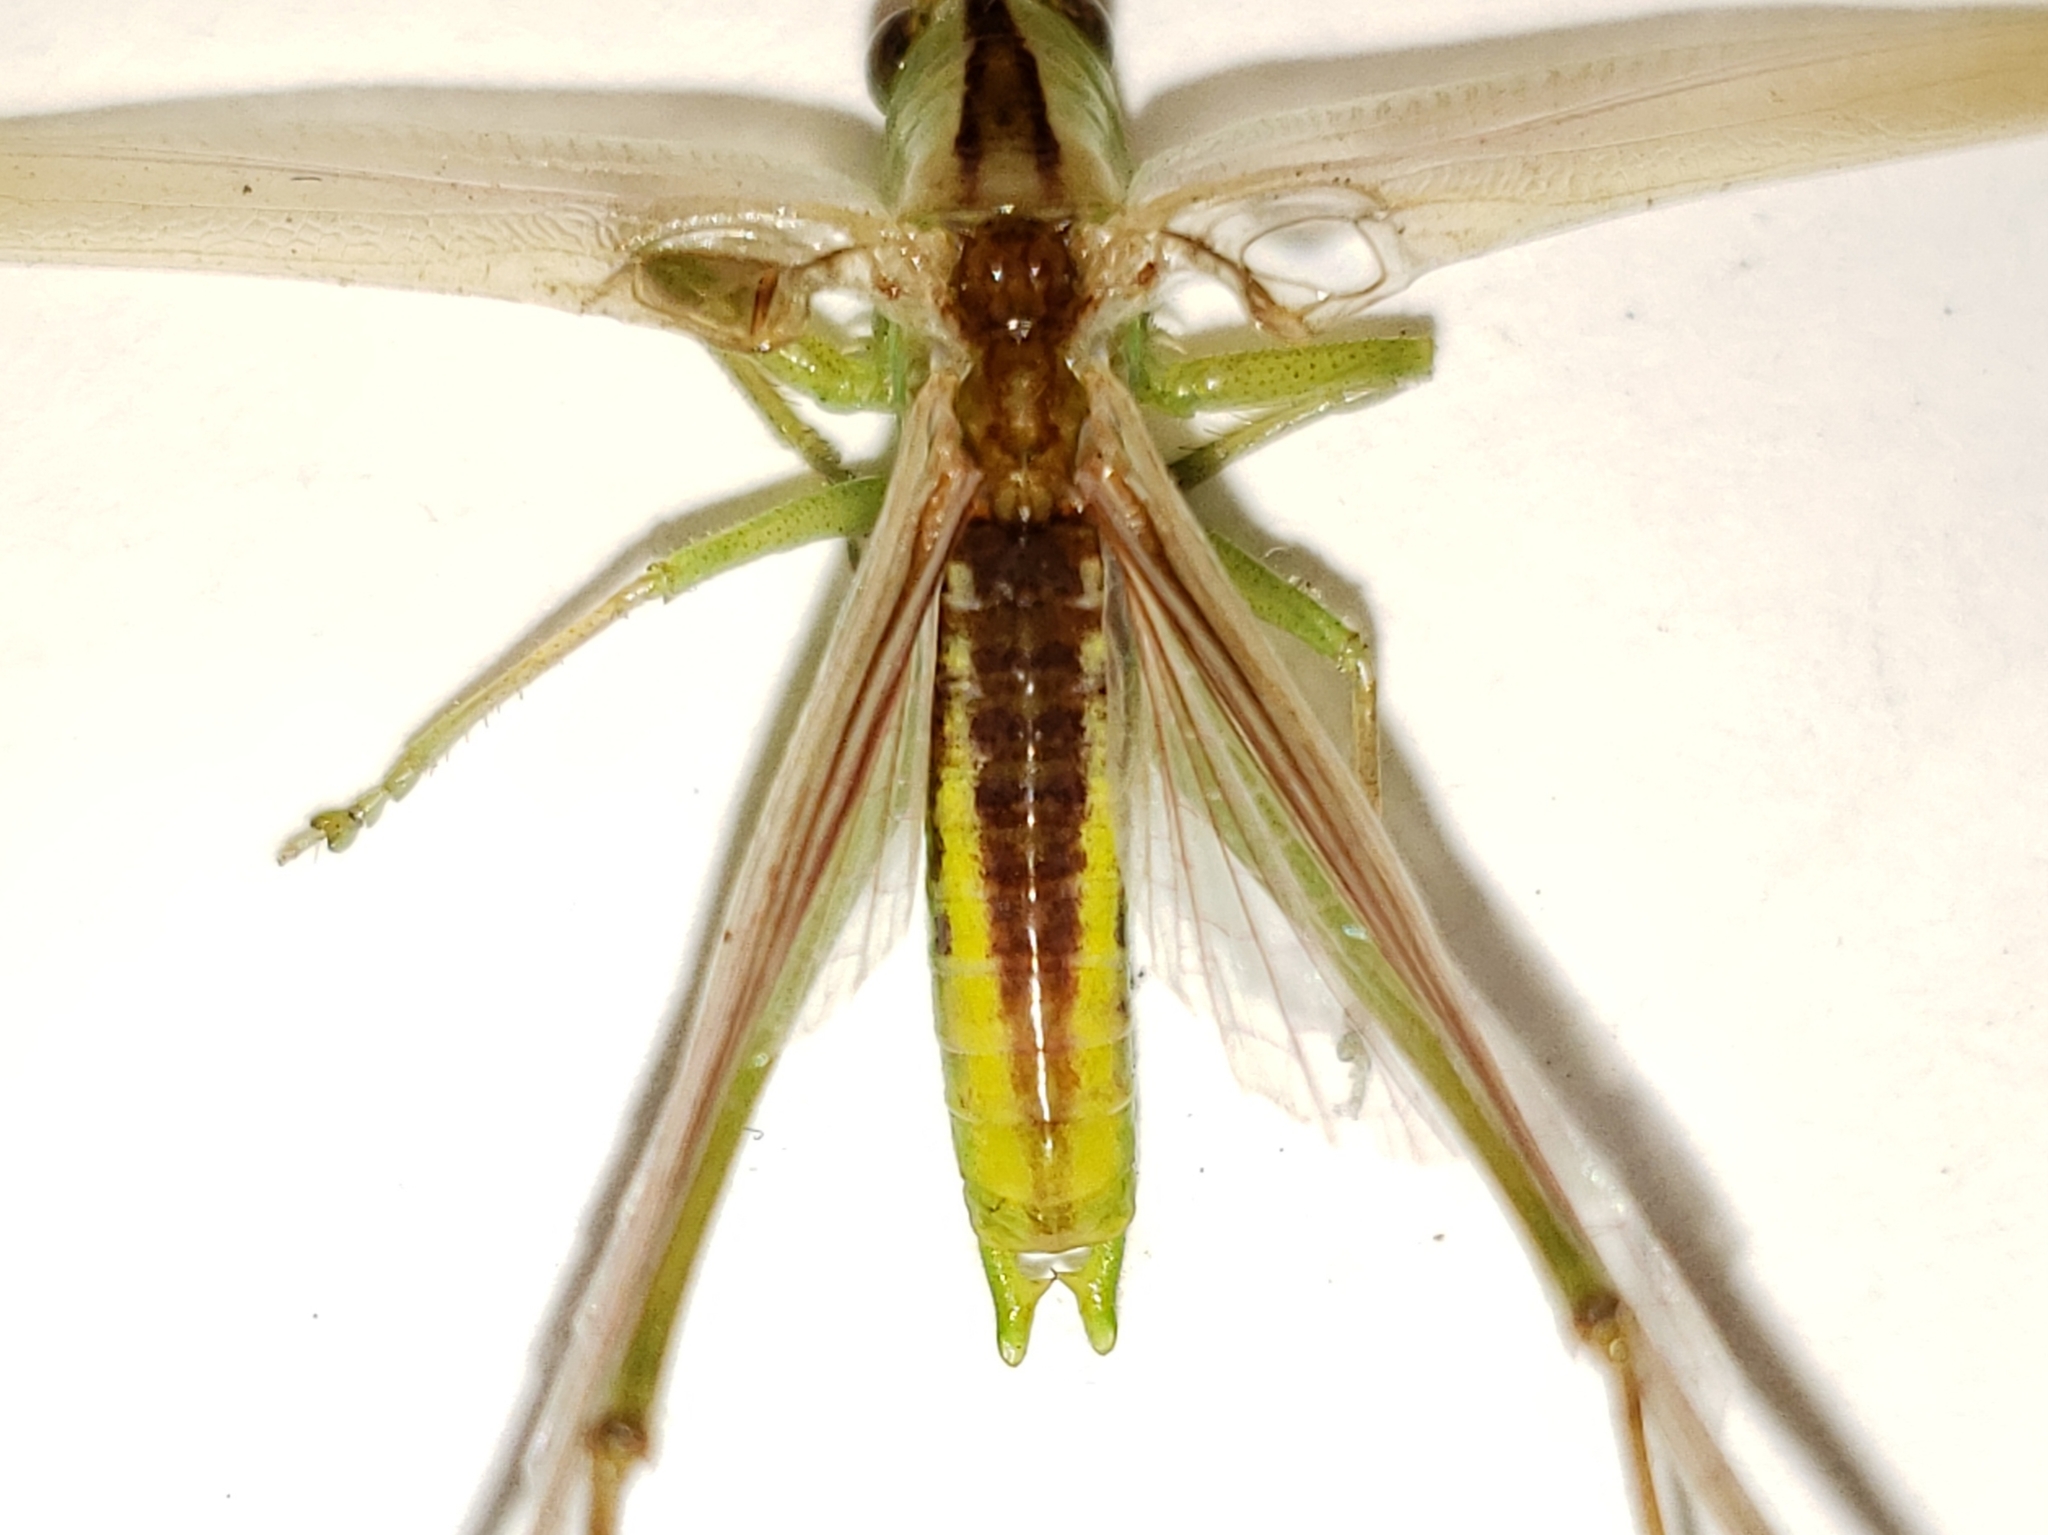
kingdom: Animalia
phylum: Arthropoda
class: Insecta
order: Orthoptera
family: Tettigoniidae
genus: Conocephalus
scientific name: Conocephalus fasciatus
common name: Slender meadow katydid
